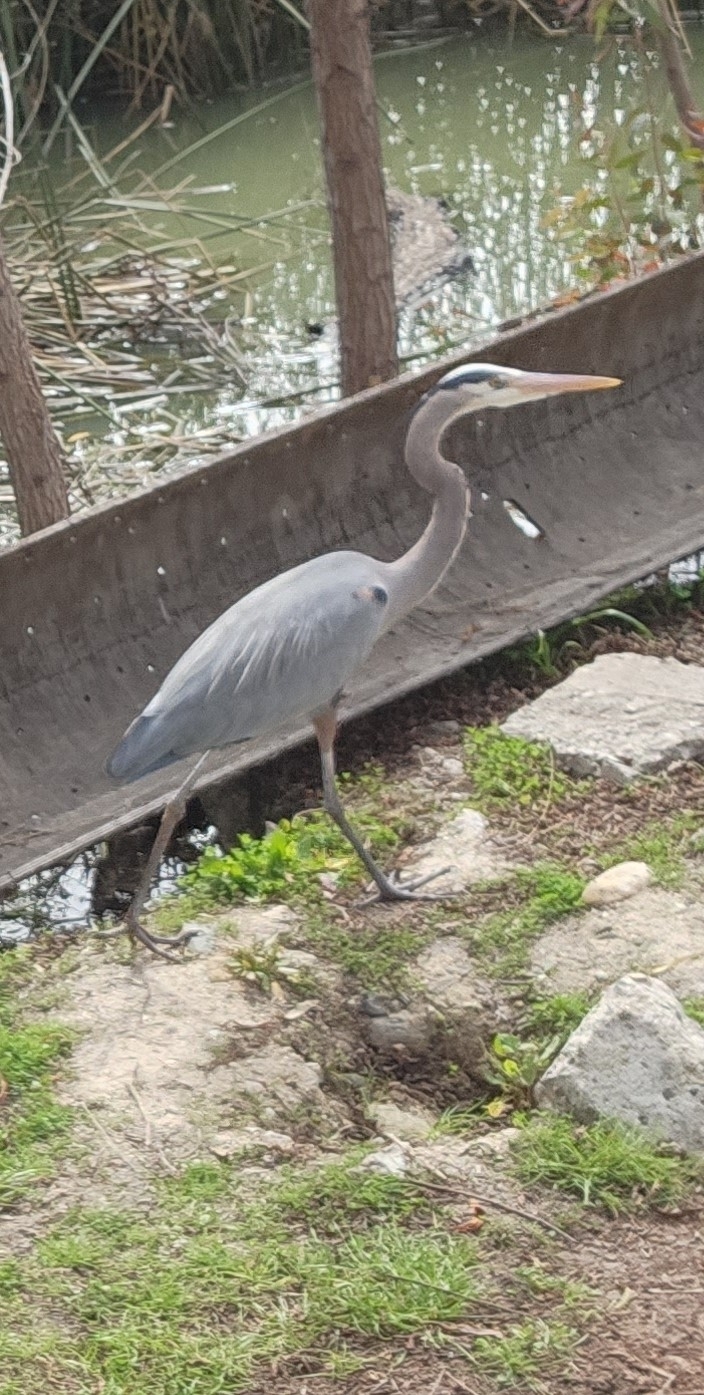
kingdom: Animalia
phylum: Chordata
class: Aves
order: Pelecaniformes
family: Ardeidae
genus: Ardea
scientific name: Ardea herodias
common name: Great blue heron
